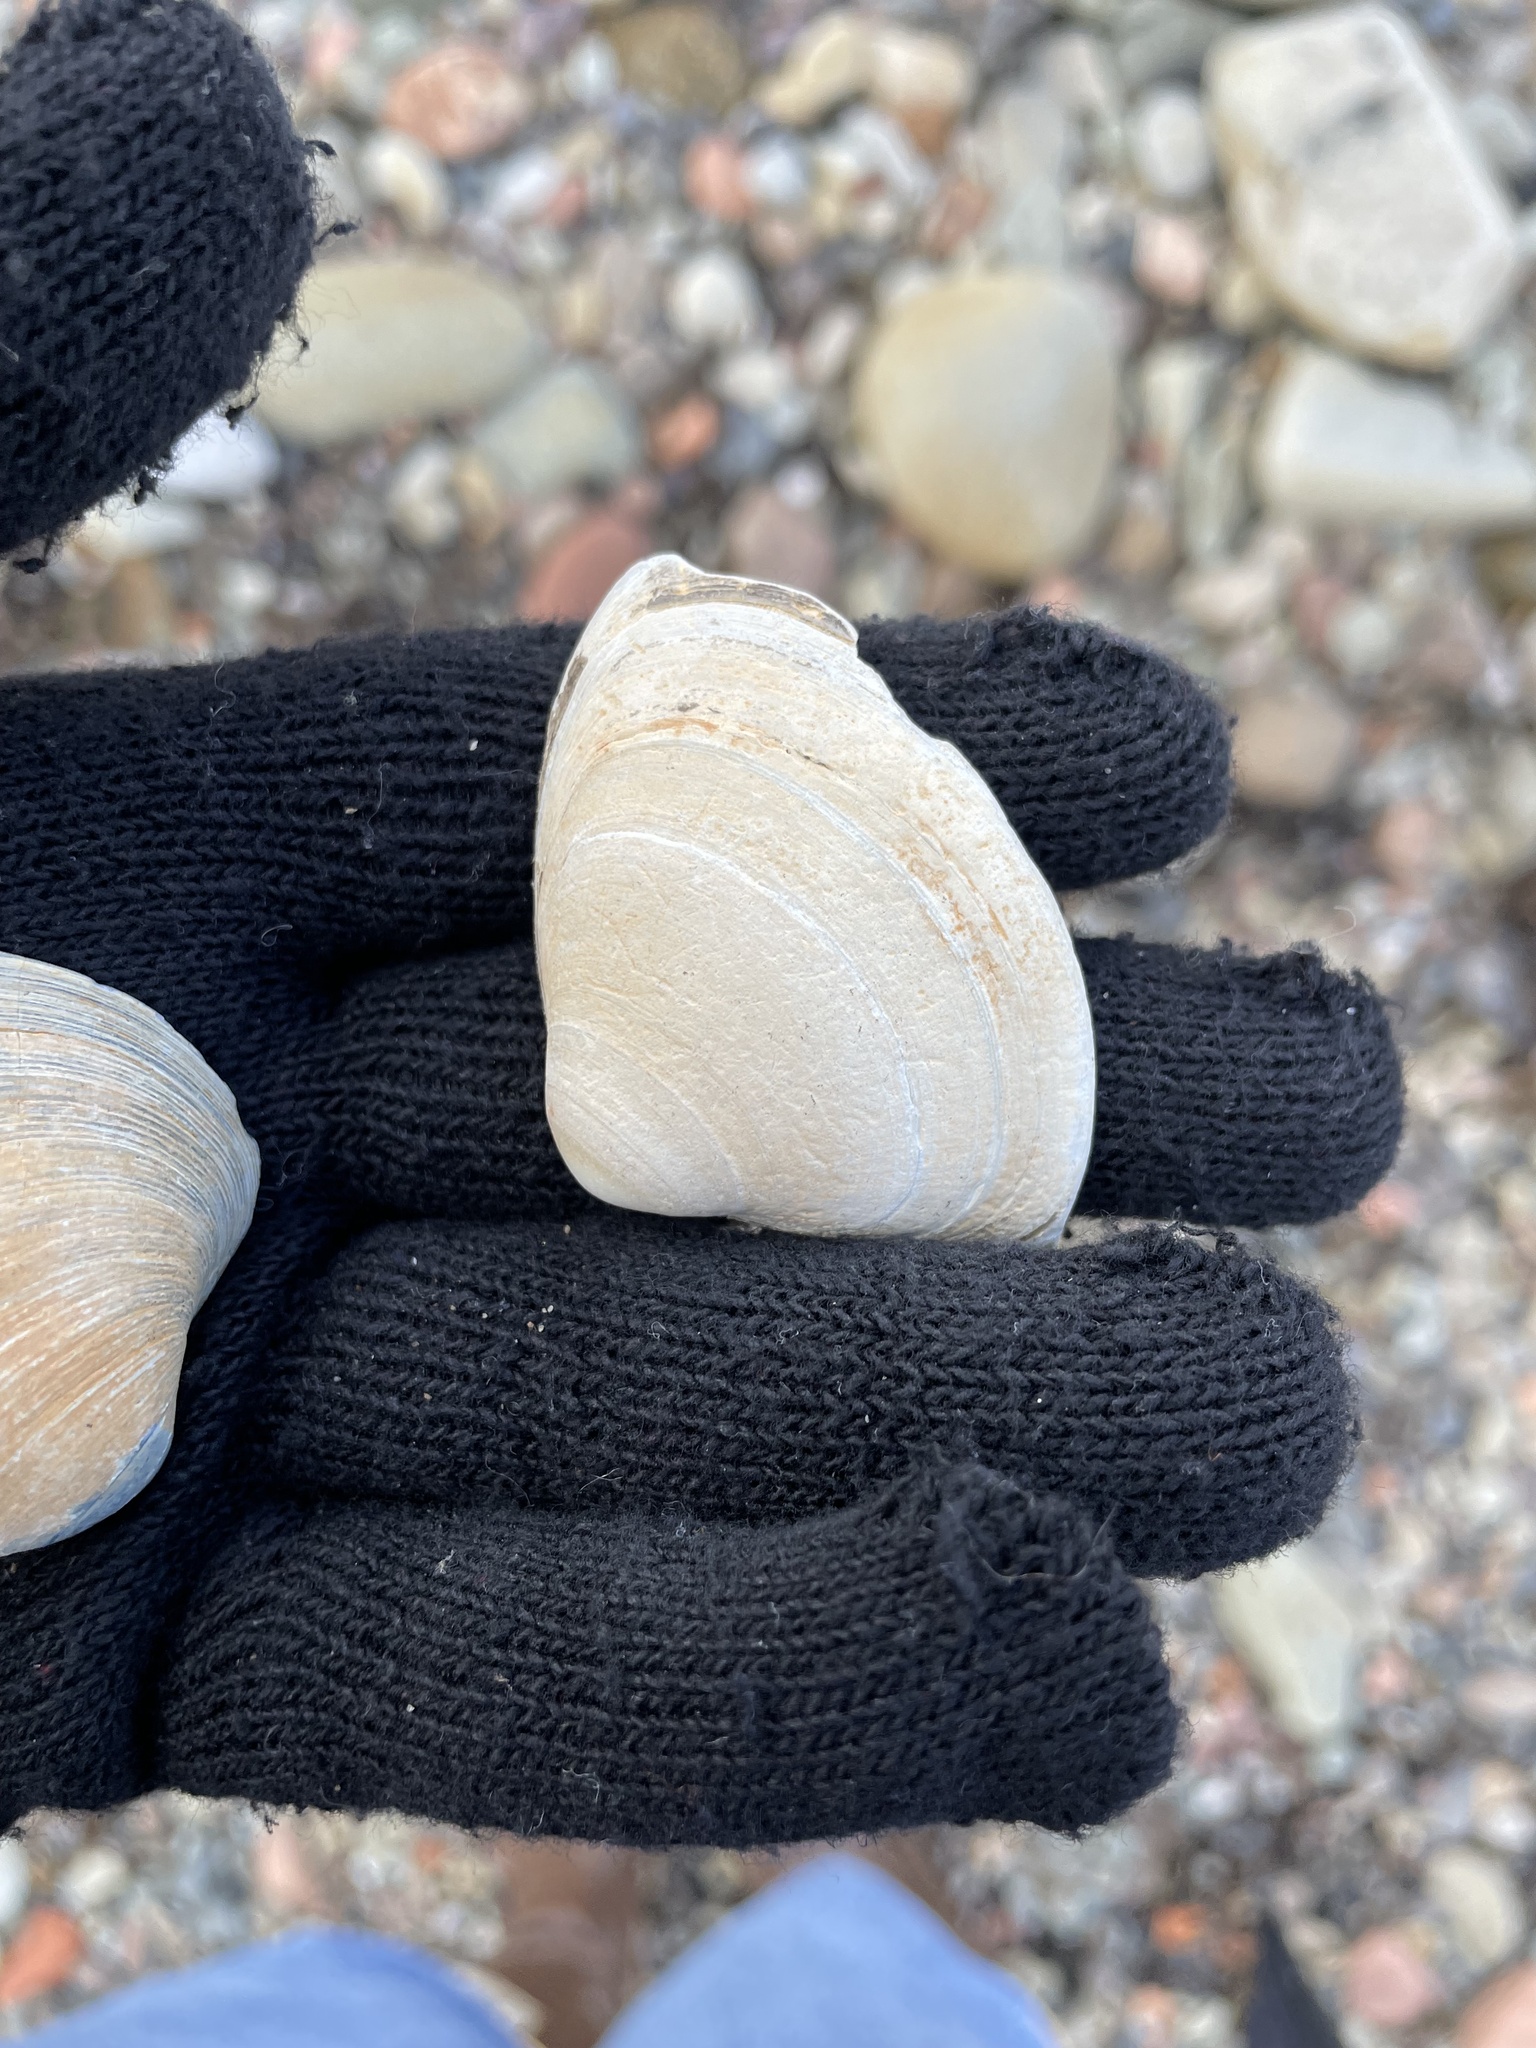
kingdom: Animalia
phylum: Mollusca
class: Bivalvia
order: Venerida
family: Mactridae
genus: Spisula
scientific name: Spisula solidissima
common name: Atlantic surf clam
